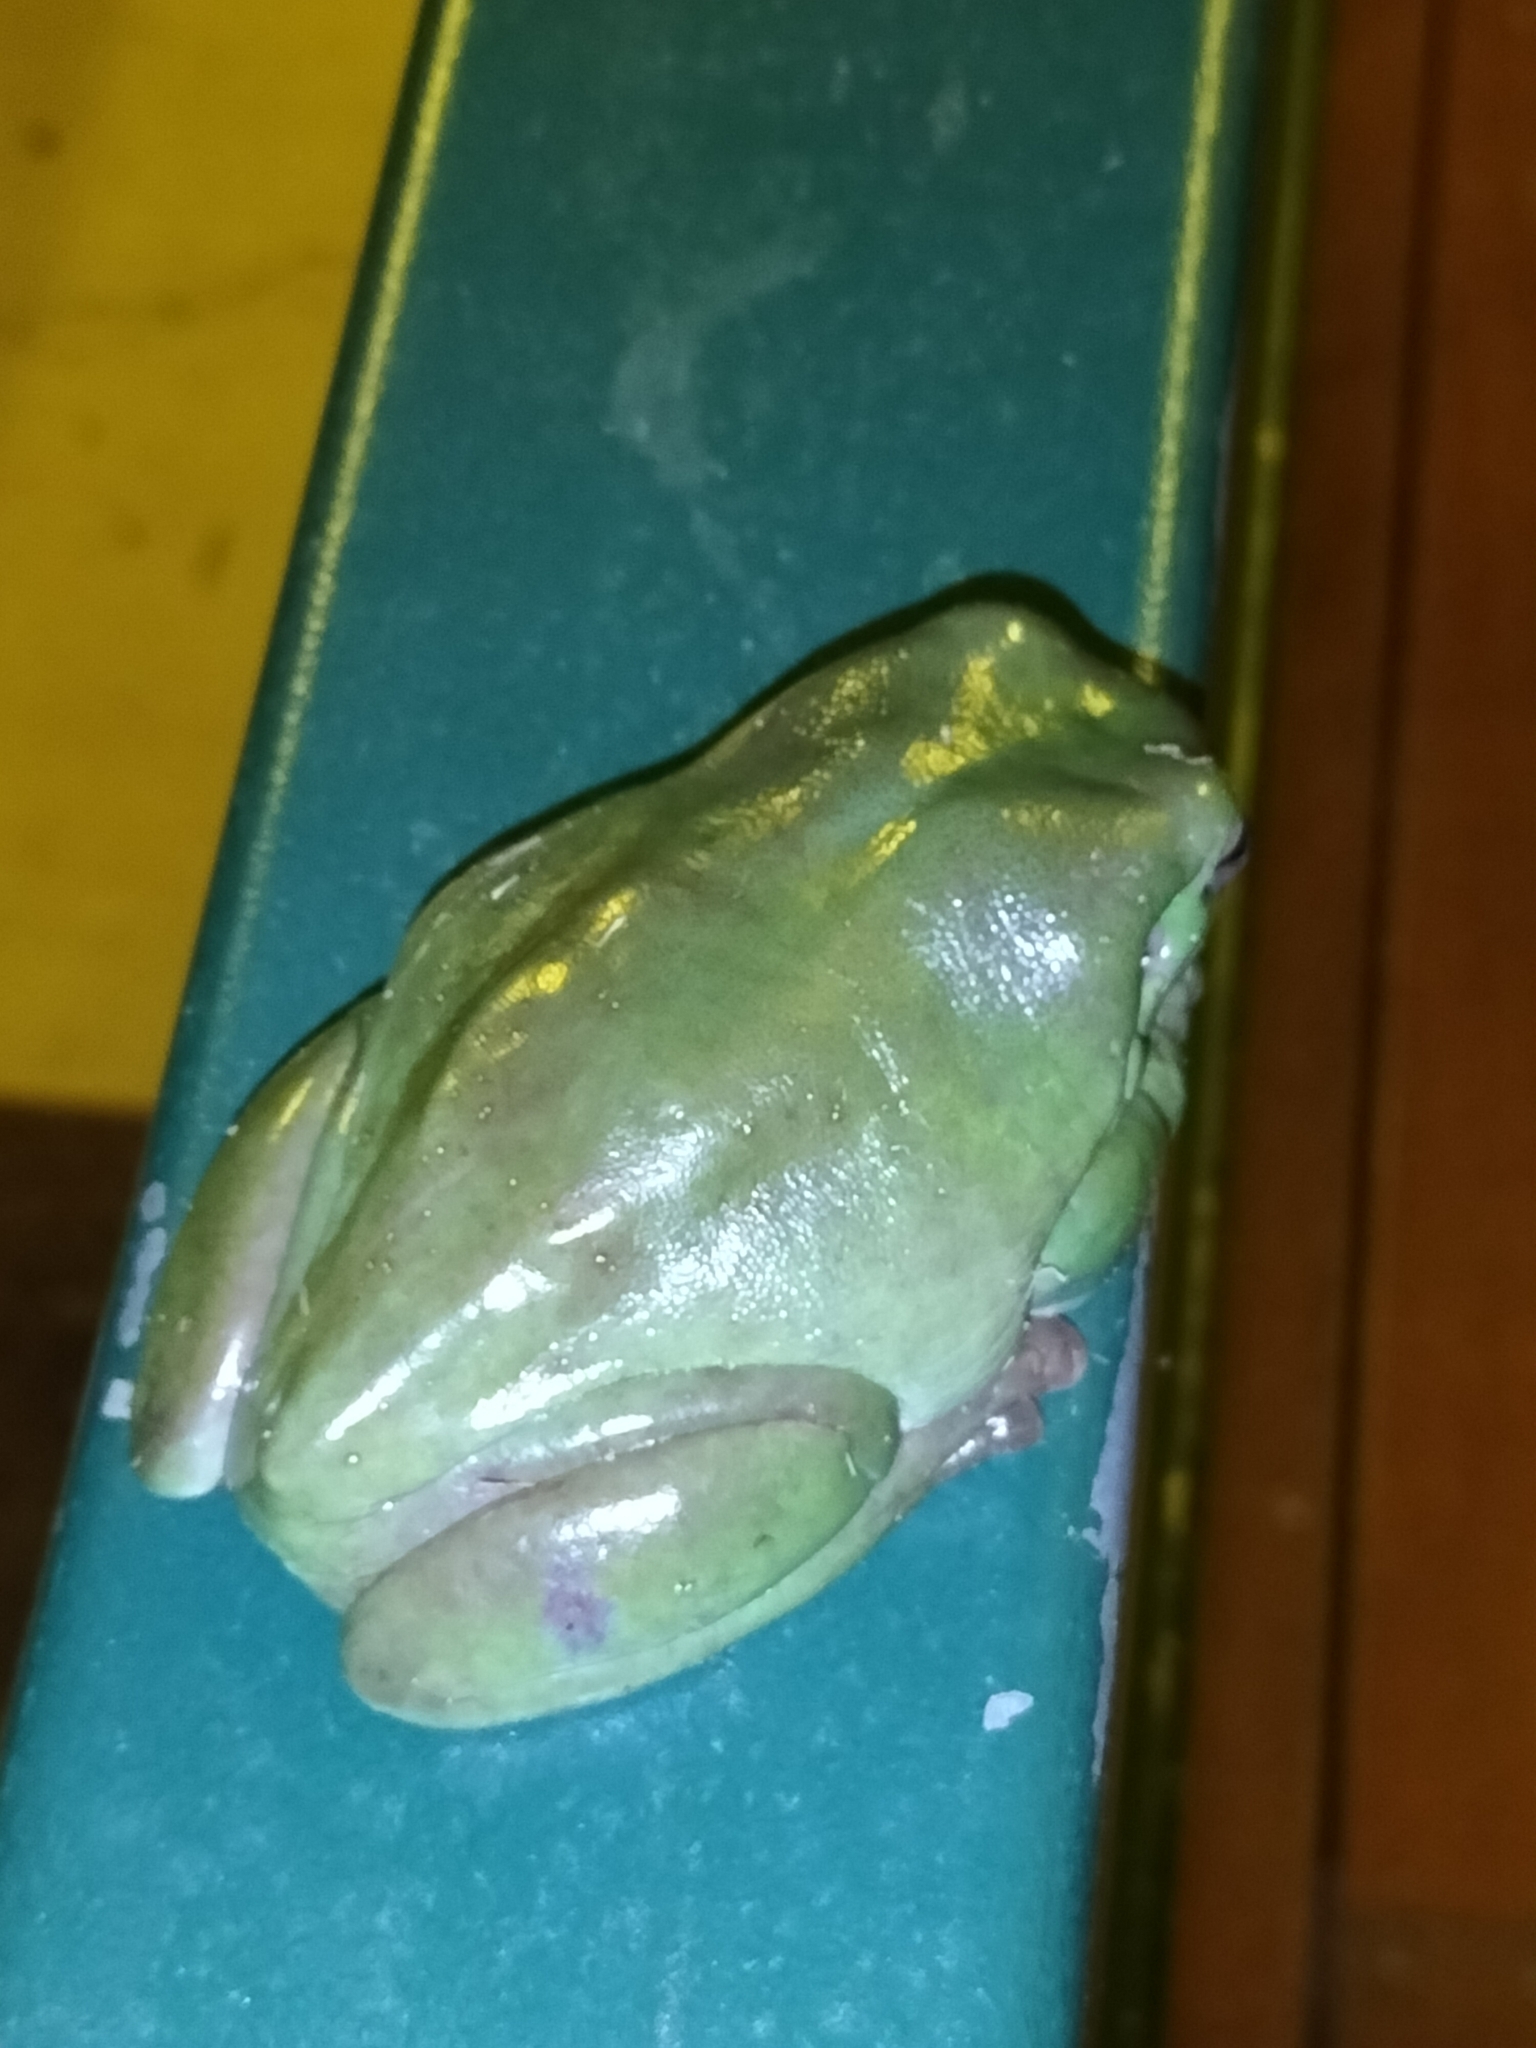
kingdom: Animalia
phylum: Chordata
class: Amphibia
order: Anura
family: Pelodryadidae
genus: Ranoidea
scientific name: Ranoidea caerulea
